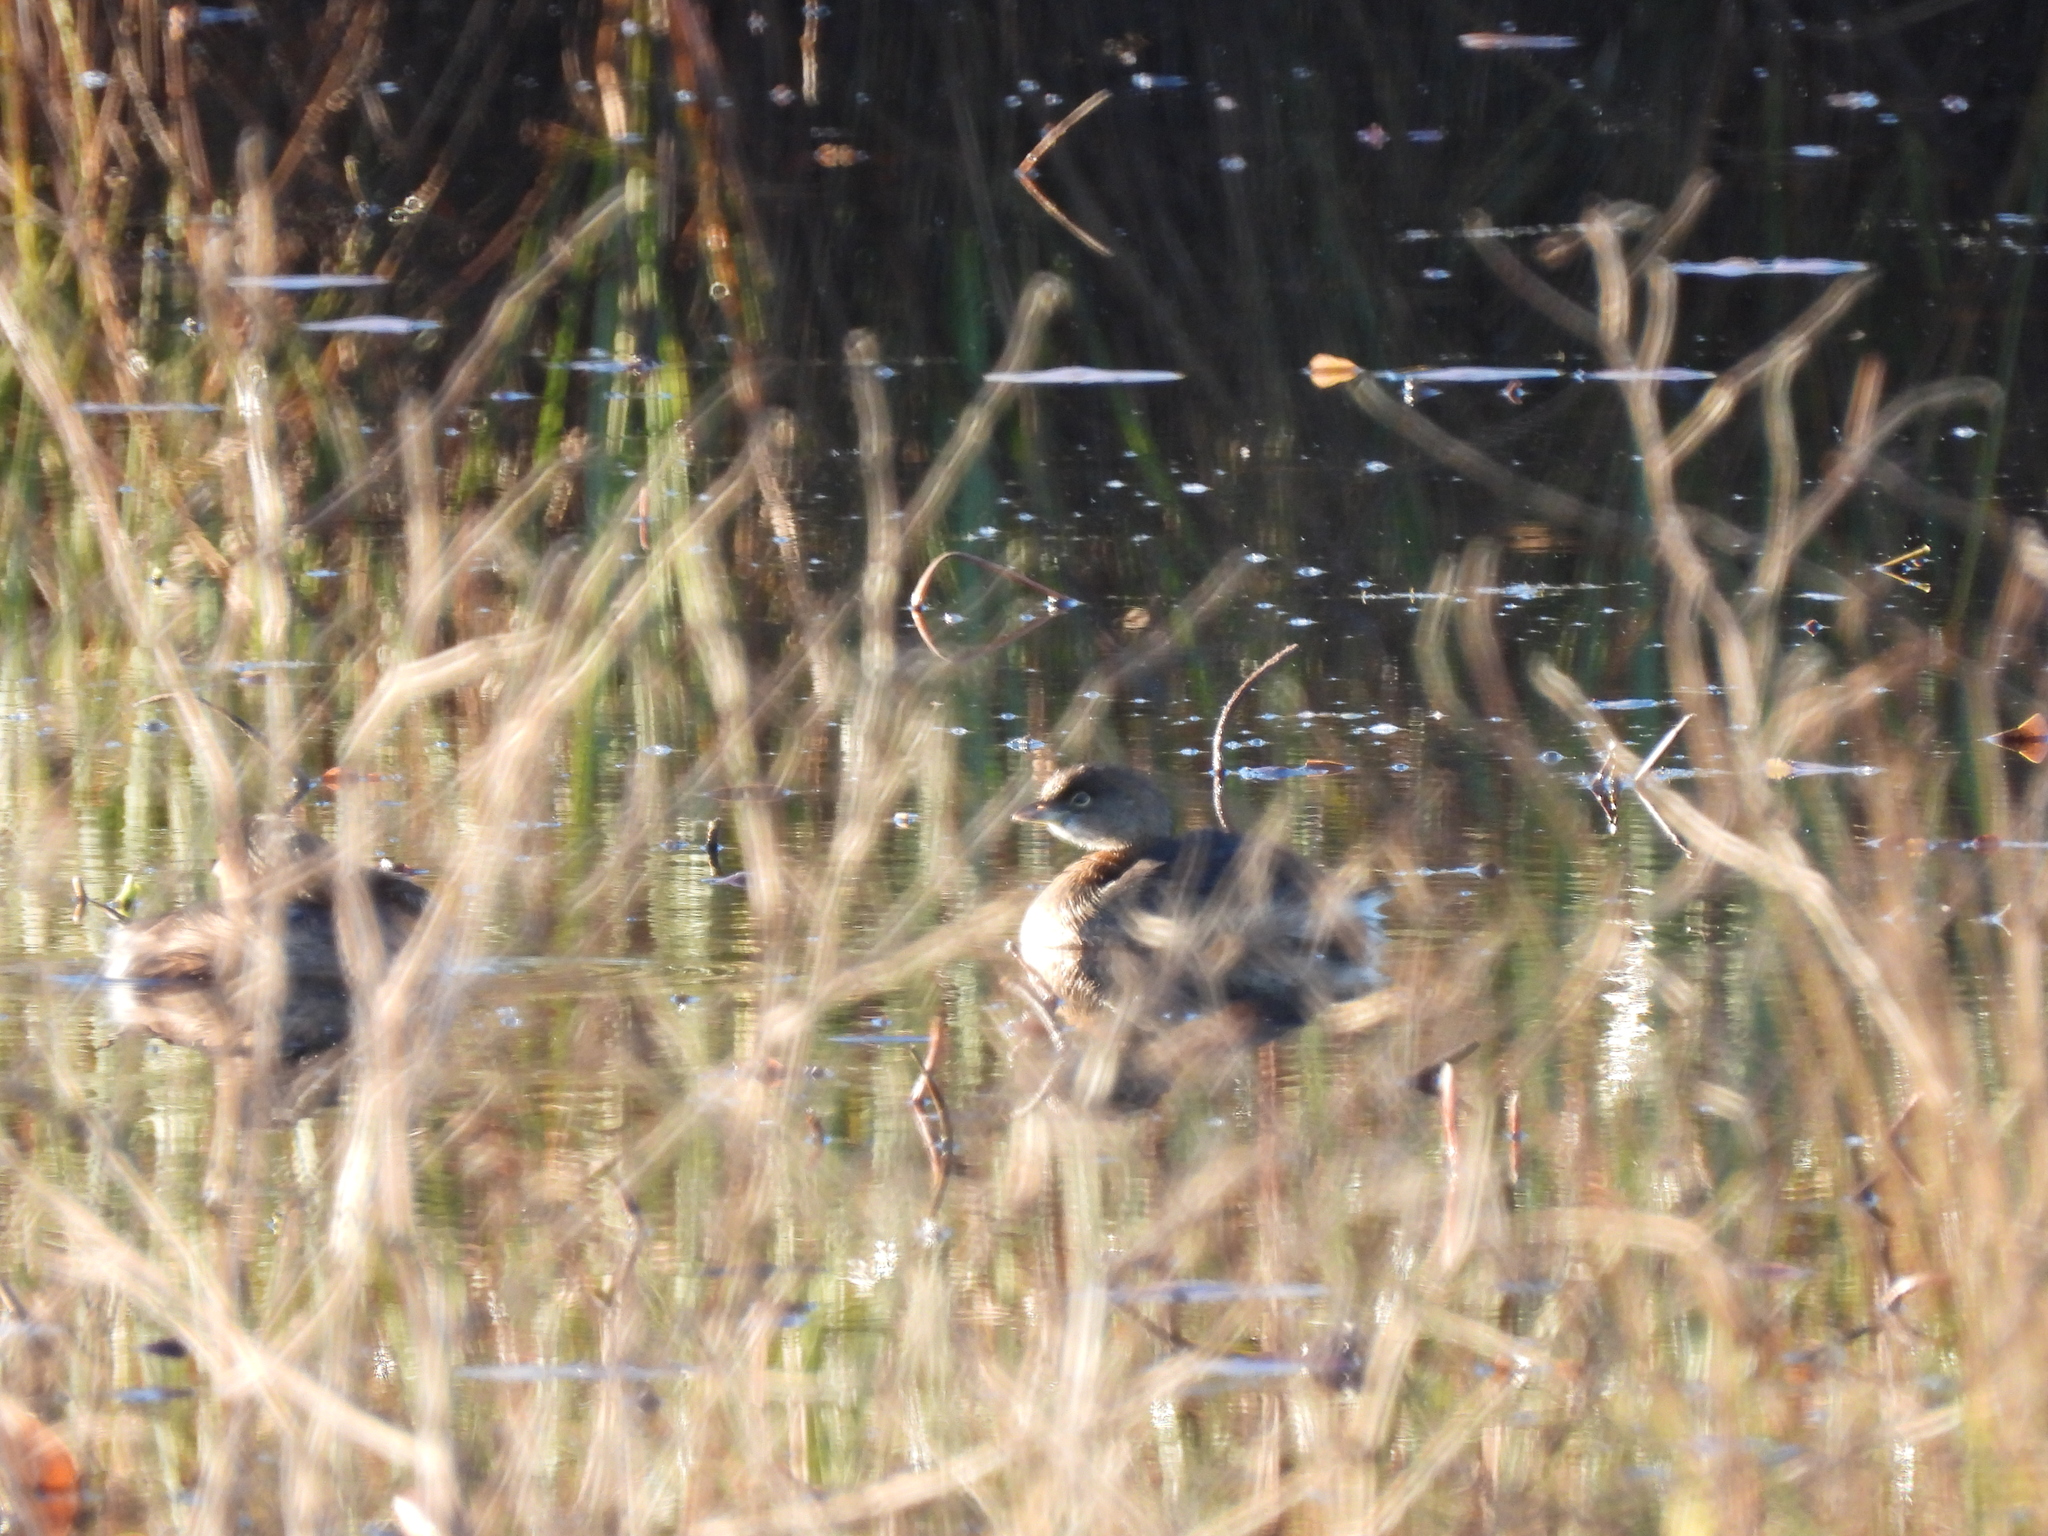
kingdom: Animalia
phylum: Chordata
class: Aves
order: Podicipediformes
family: Podicipedidae
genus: Podilymbus
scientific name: Podilymbus podiceps
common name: Pied-billed grebe
